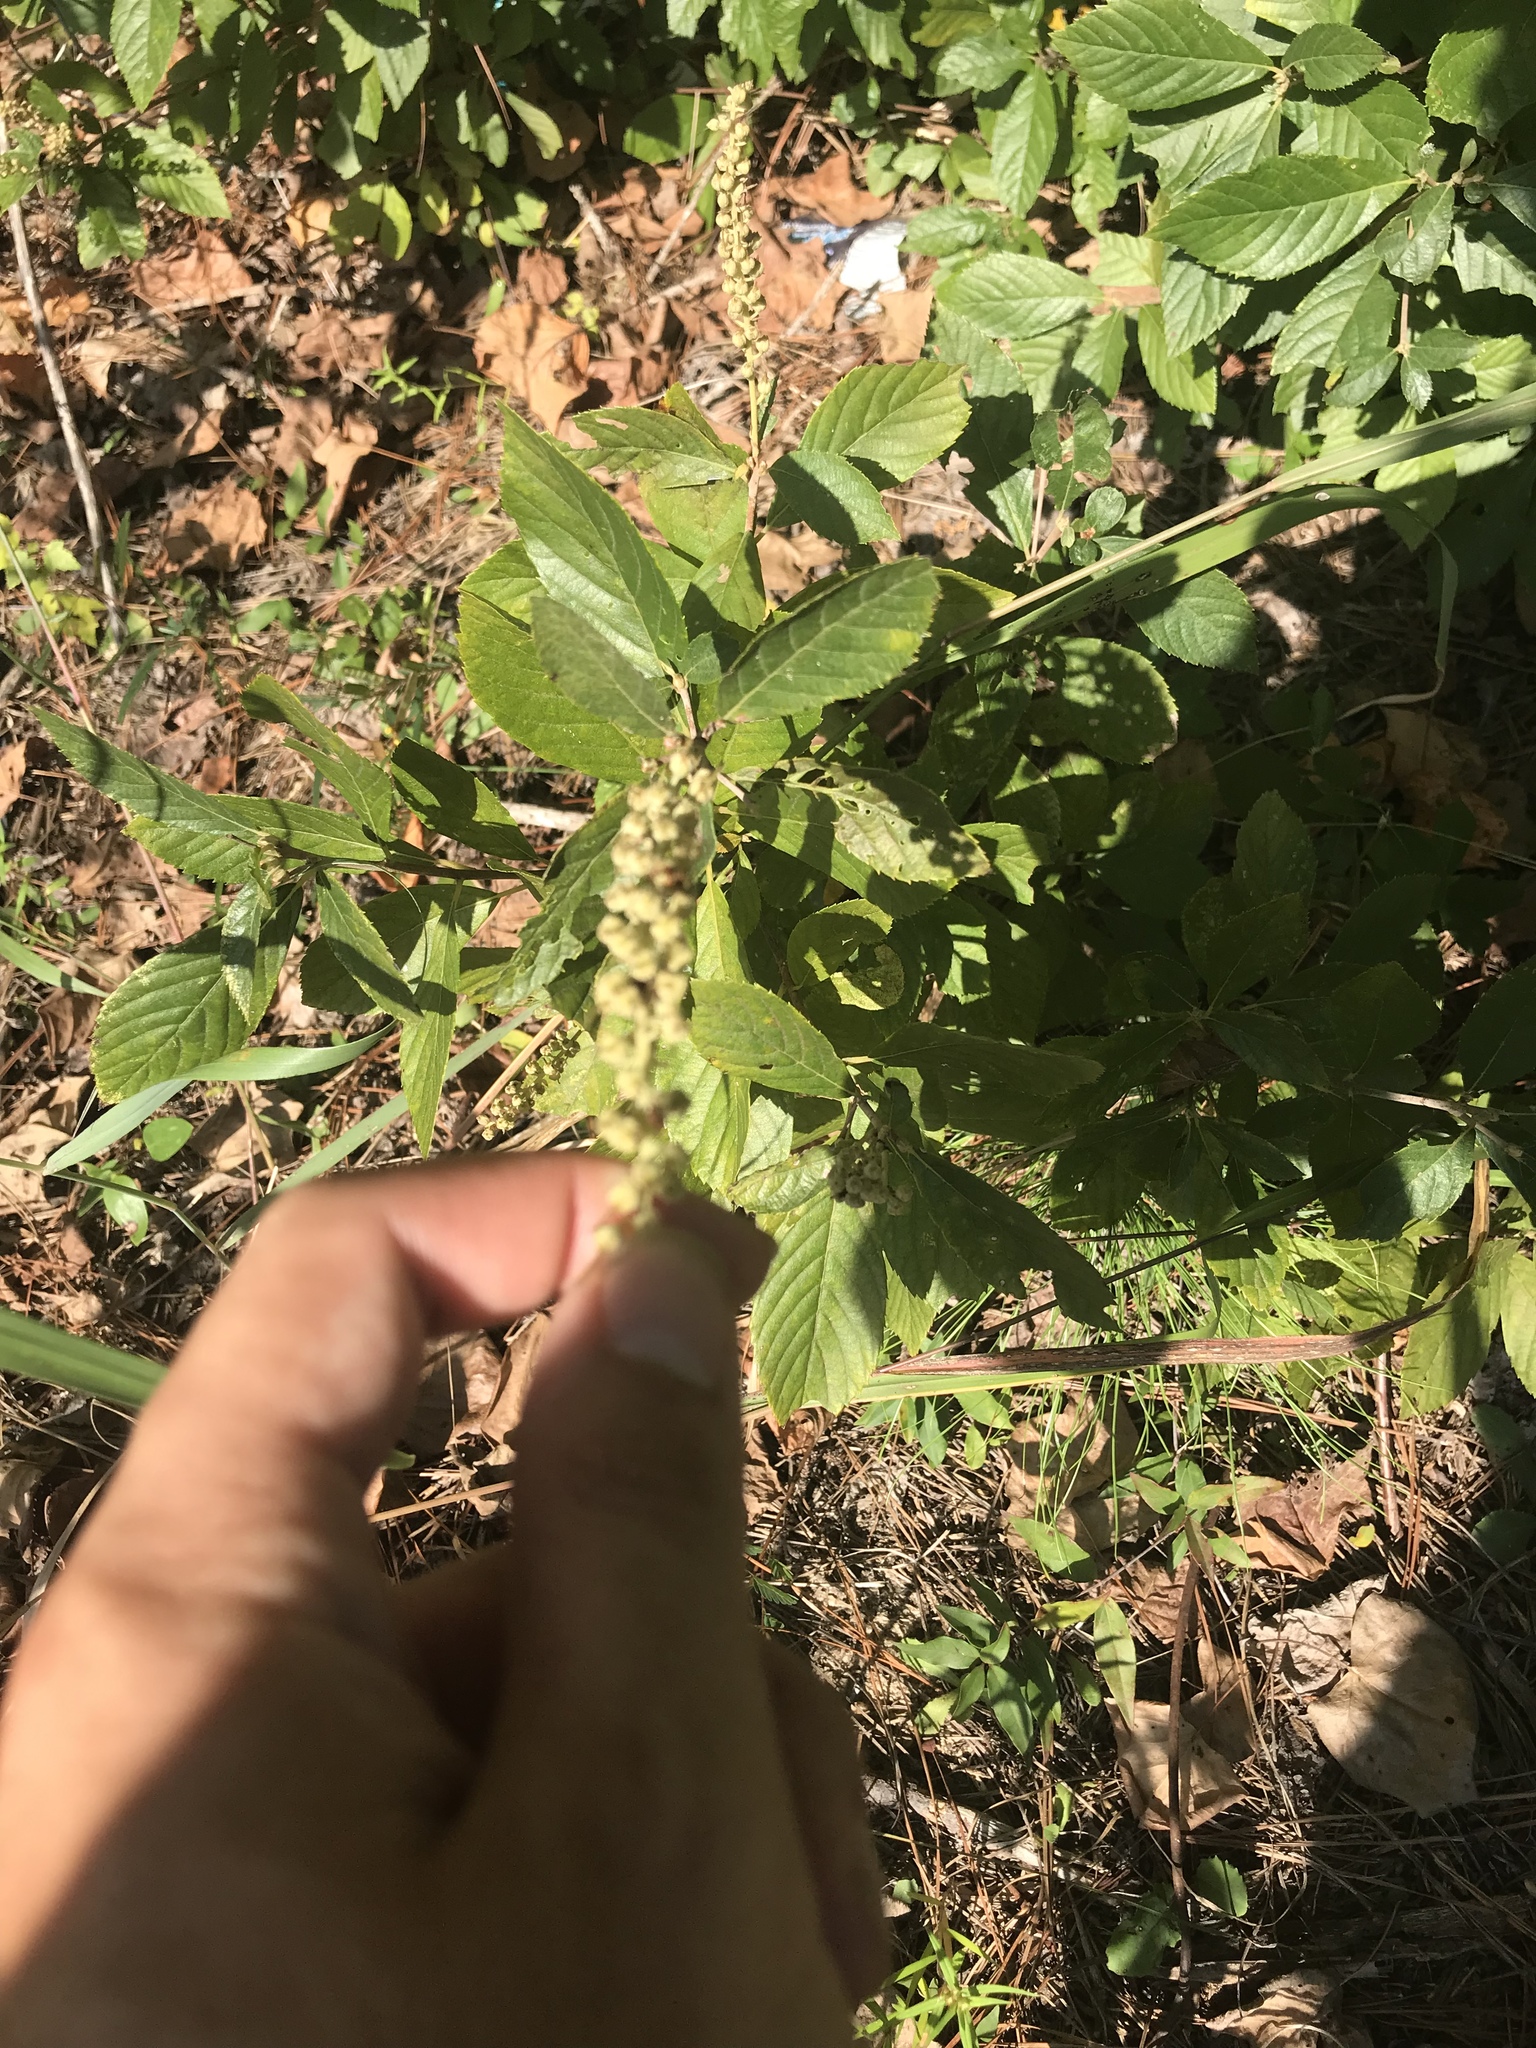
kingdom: Plantae
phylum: Tracheophyta
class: Magnoliopsida
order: Ericales
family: Clethraceae
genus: Clethra
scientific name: Clethra alnifolia
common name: Sweet pepperbush
